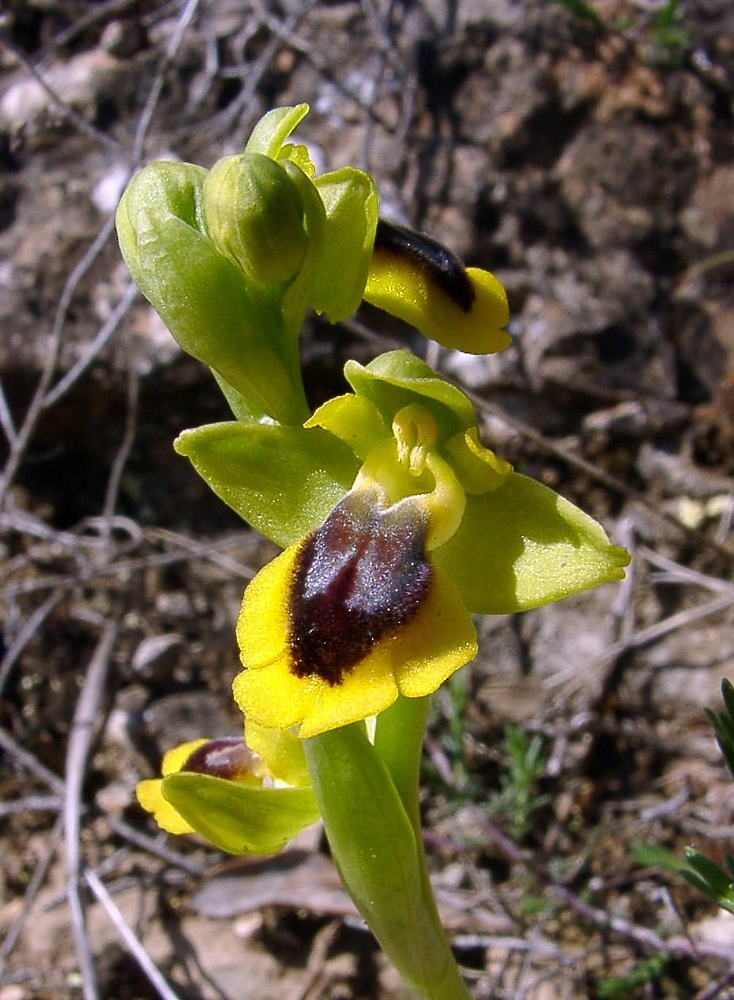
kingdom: Plantae
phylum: Tracheophyta
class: Liliopsida
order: Asparagales
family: Orchidaceae
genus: Ophrys
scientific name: Ophrys lutea
